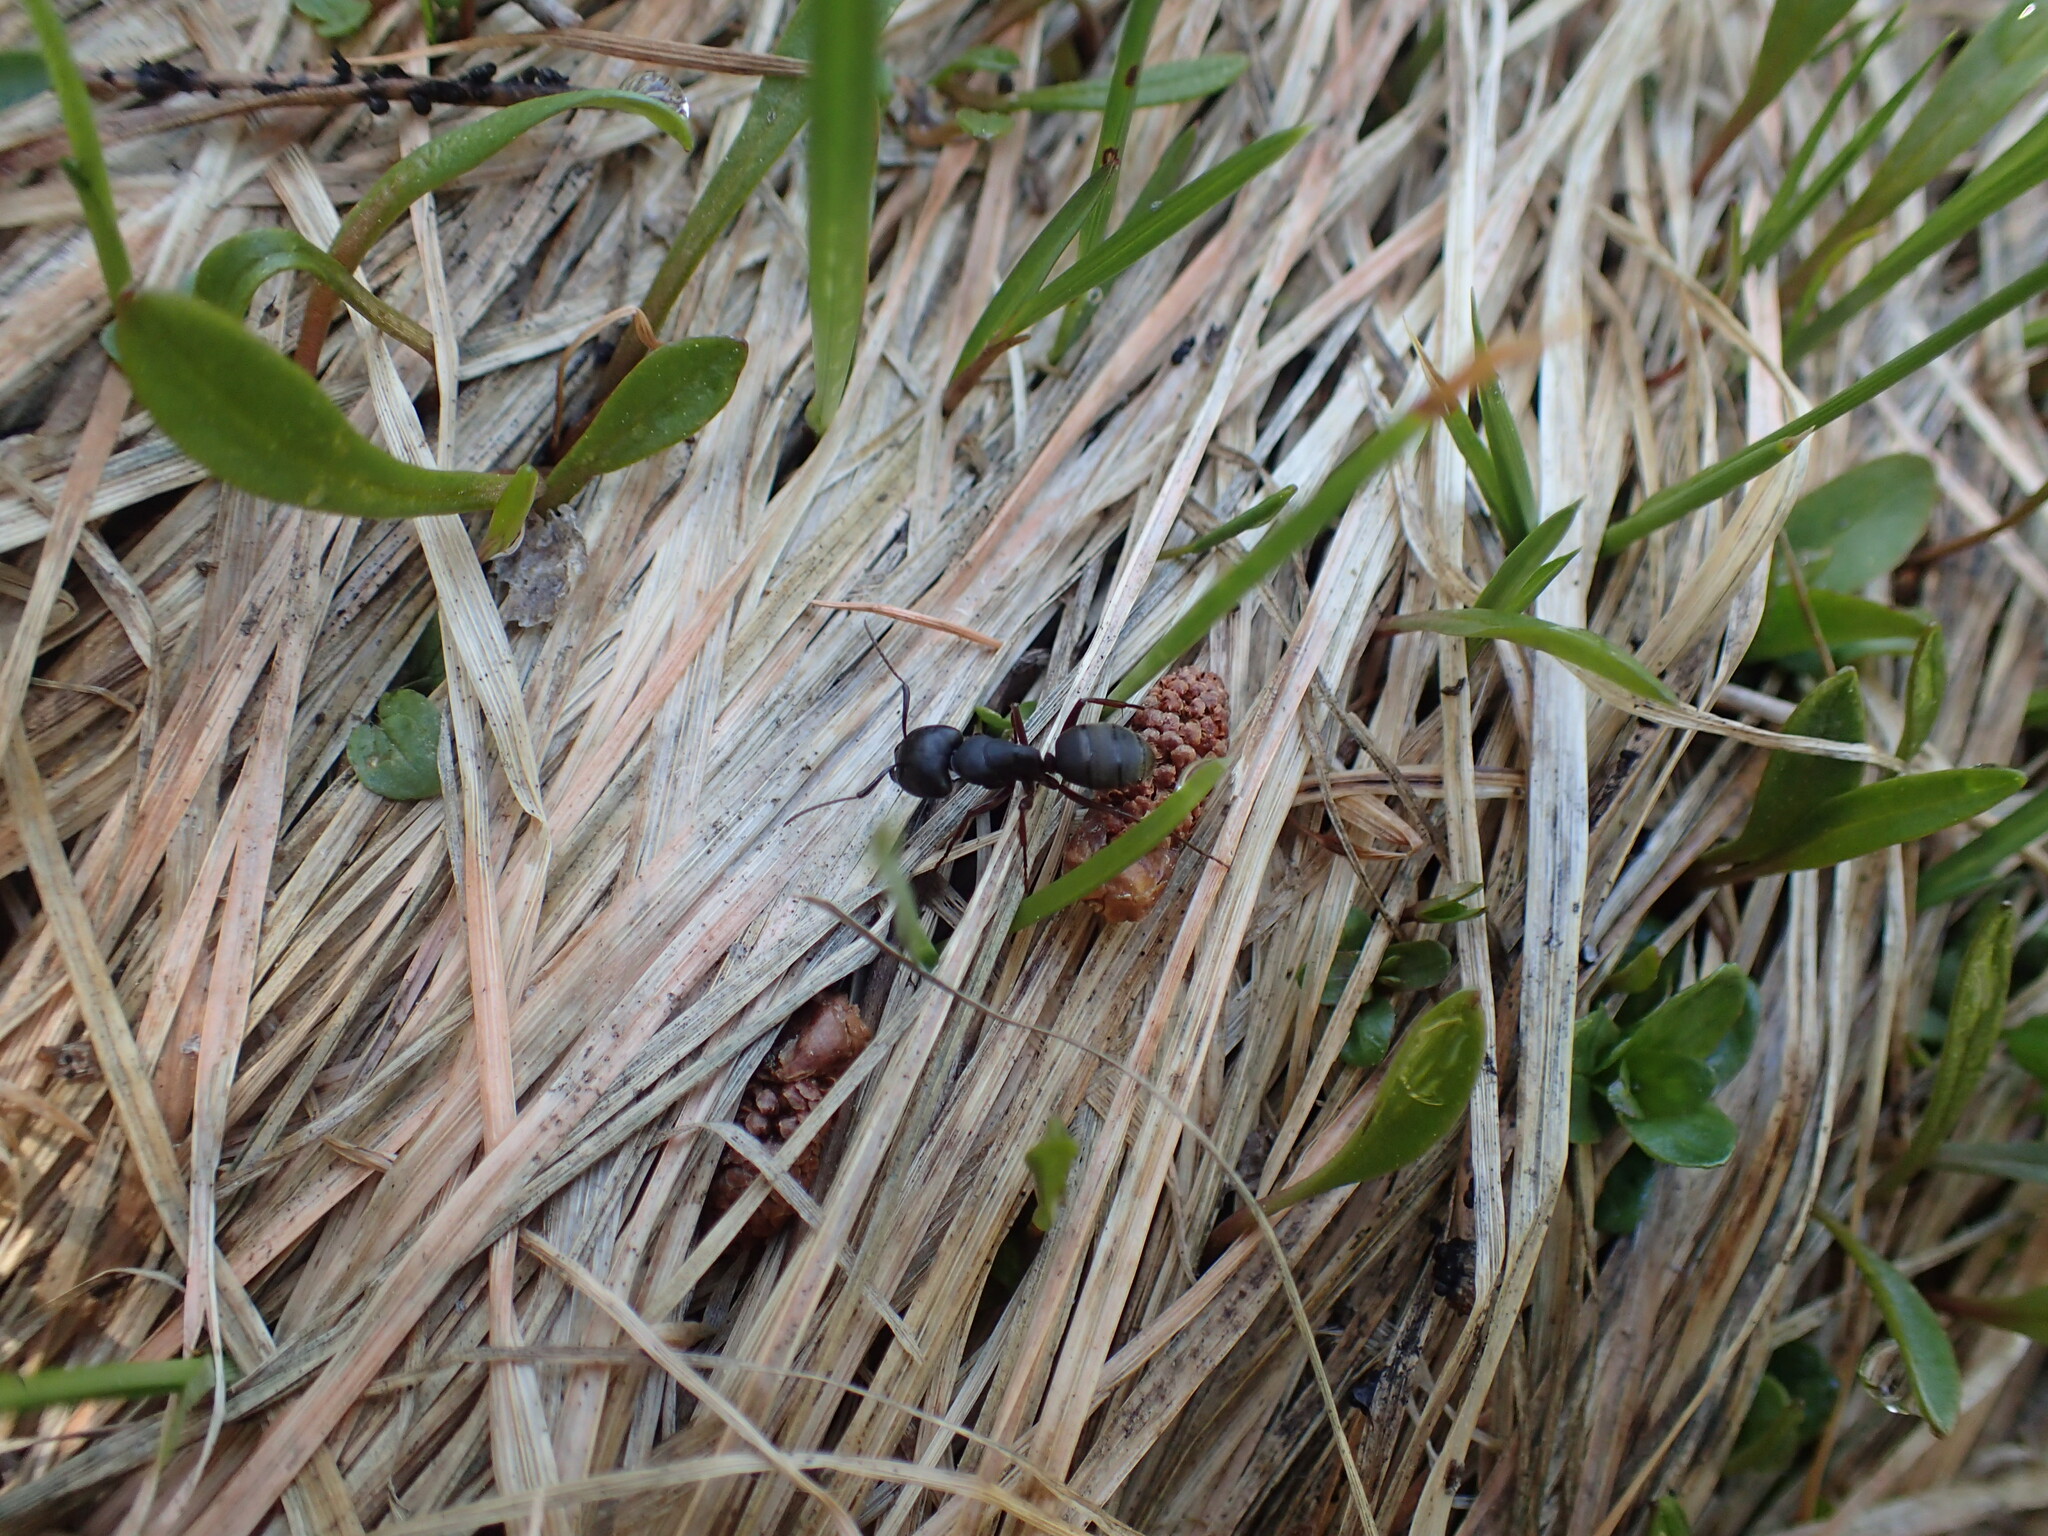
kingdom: Animalia
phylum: Arthropoda
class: Insecta
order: Hymenoptera
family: Formicidae
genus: Camponotus
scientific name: Camponotus modoc
